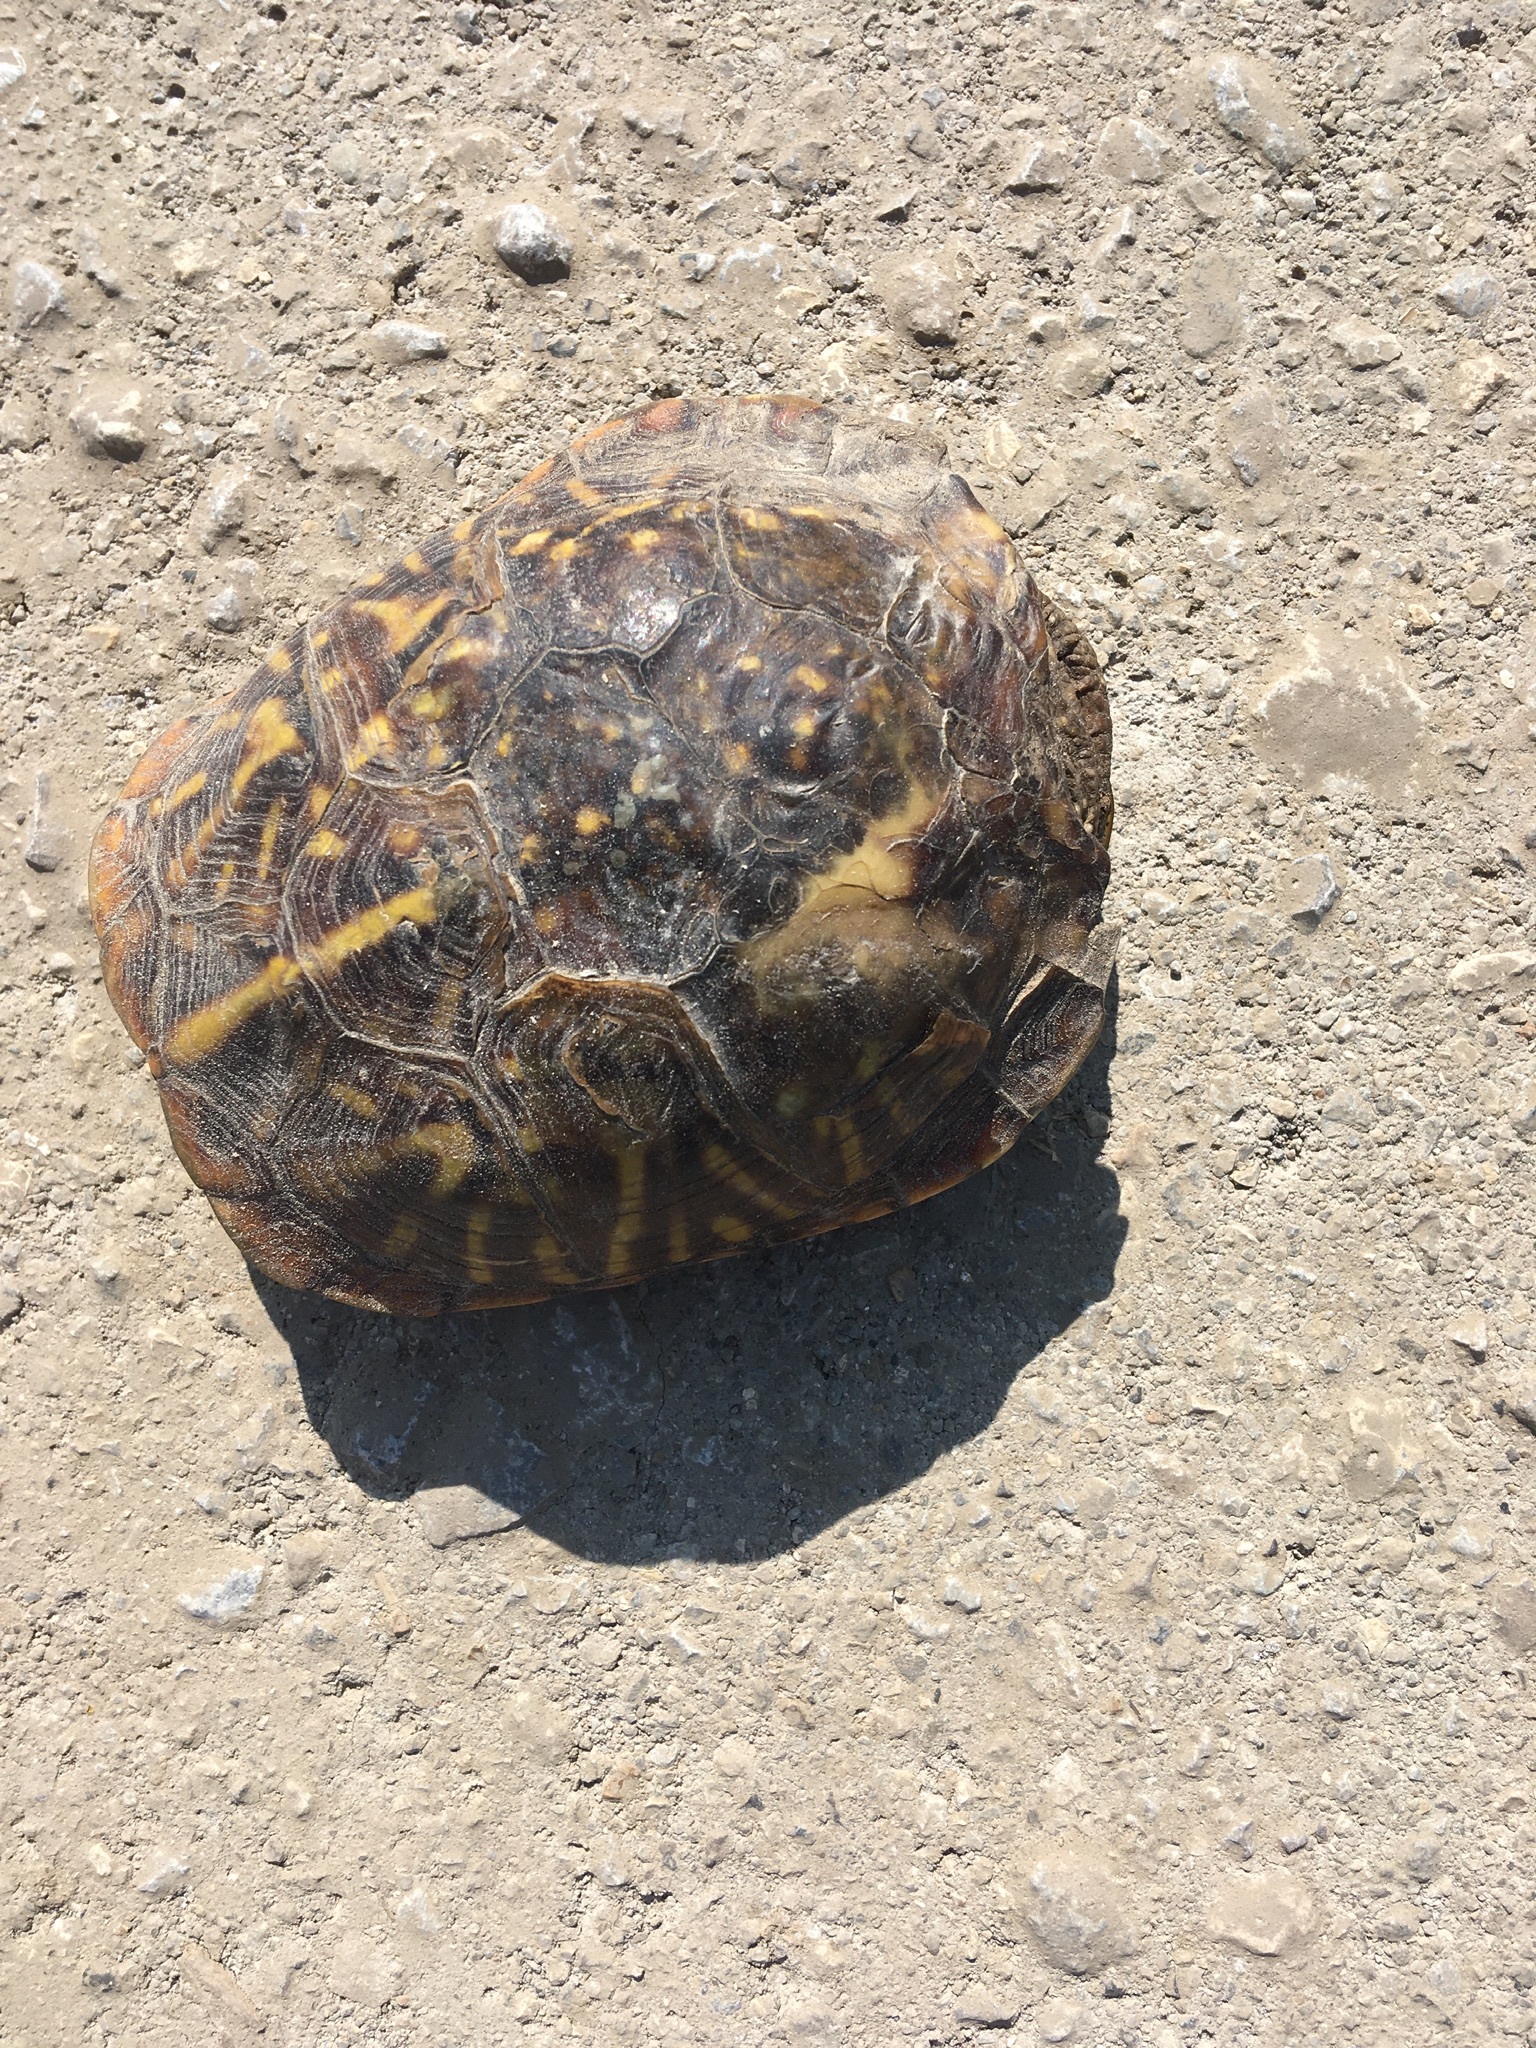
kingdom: Animalia
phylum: Chordata
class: Testudines
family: Emydidae
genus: Terrapene
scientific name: Terrapene ornata
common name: Western box turtle
